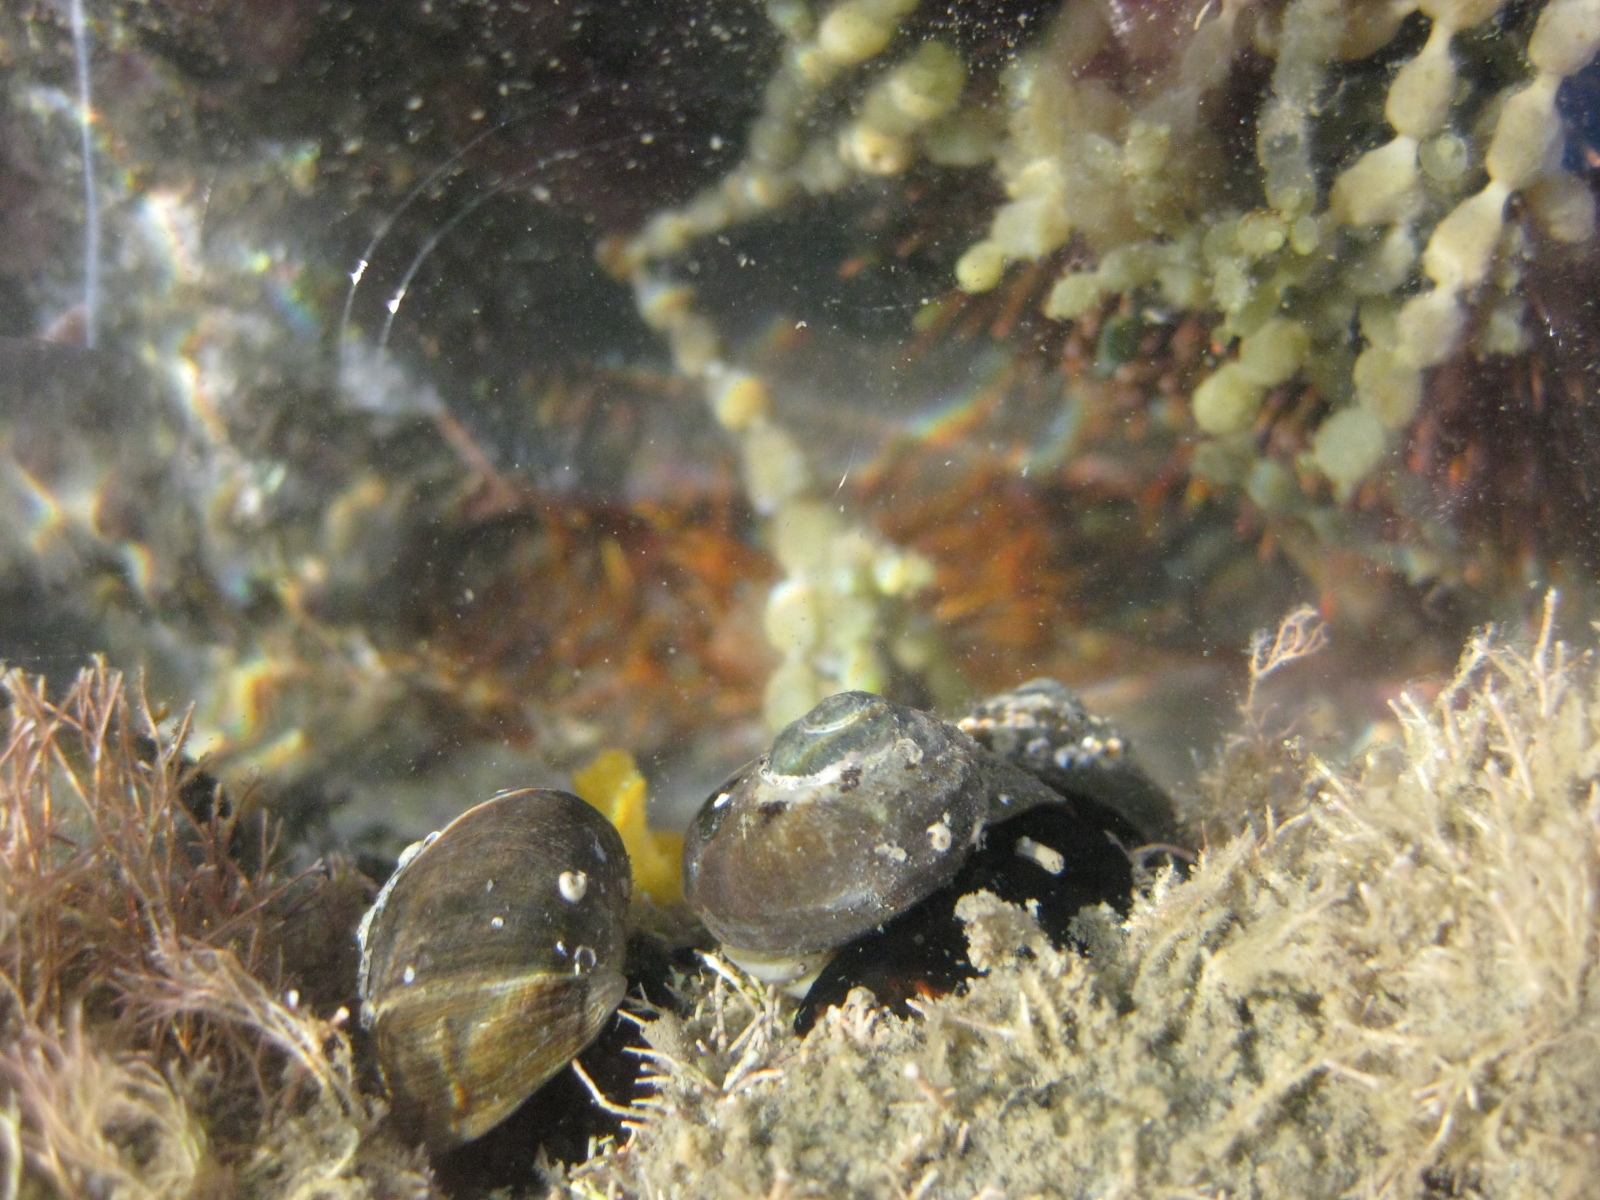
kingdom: Animalia
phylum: Mollusca
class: Gastropoda
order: Trochida
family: Turbinidae
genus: Lunella
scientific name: Lunella smaragda
